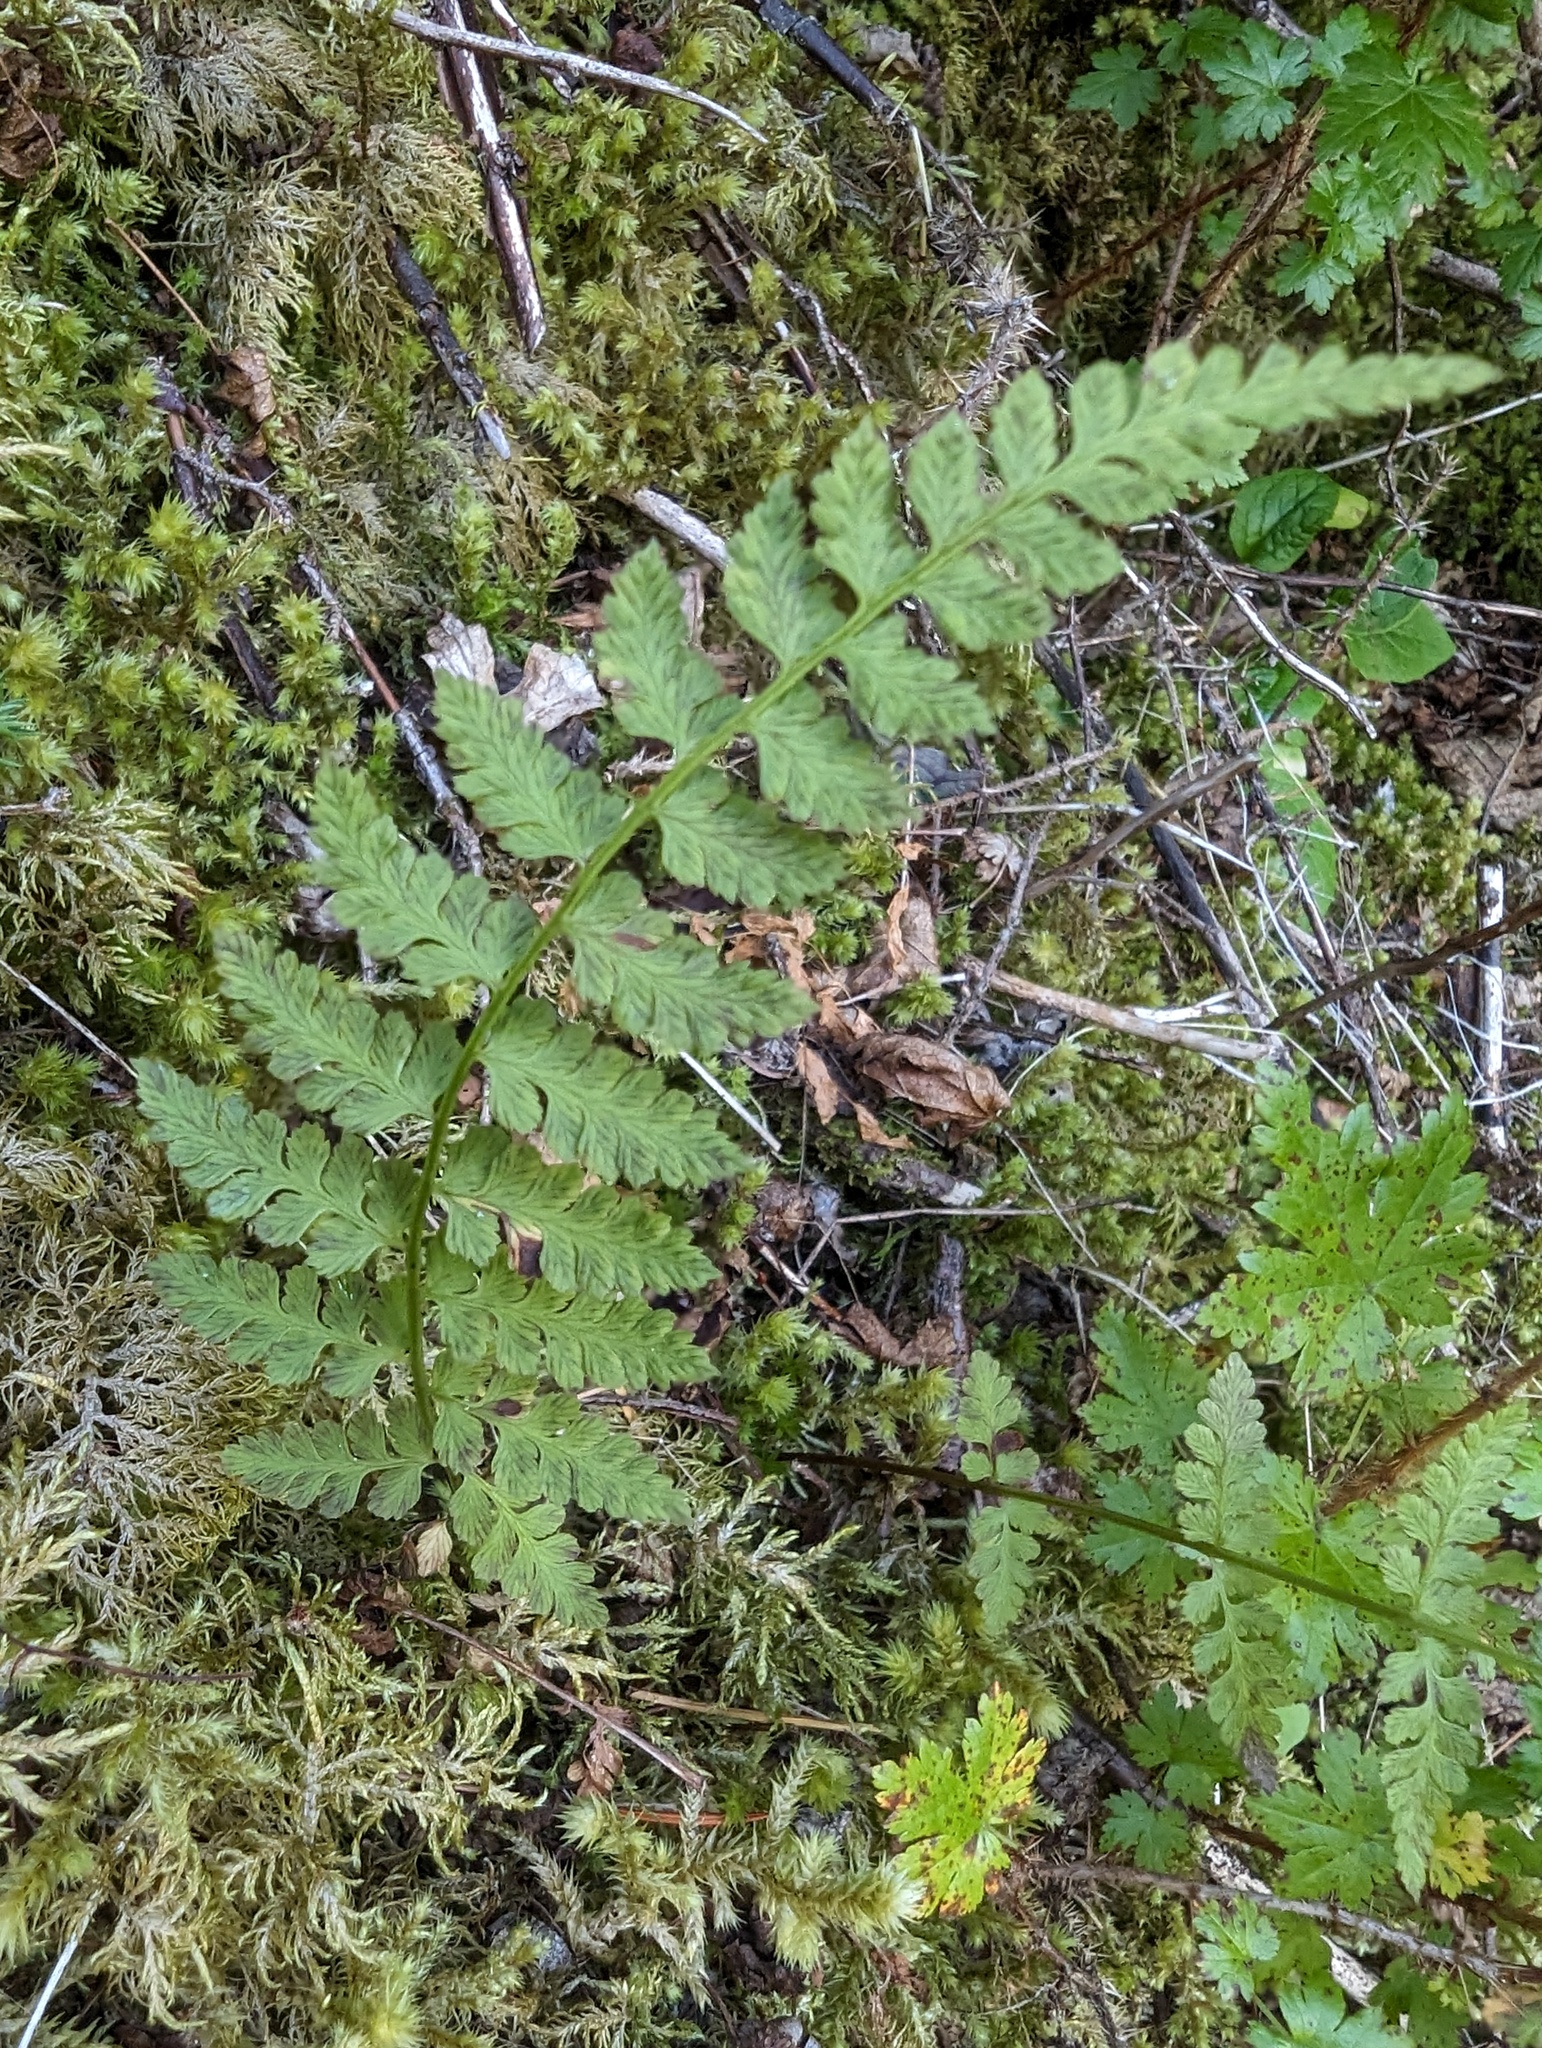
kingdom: Plantae
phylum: Tracheophyta
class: Polypodiopsida
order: Polypodiales
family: Cystopteridaceae
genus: Cystopteris
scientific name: Cystopteris fragilis
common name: Brittle bladder fern
